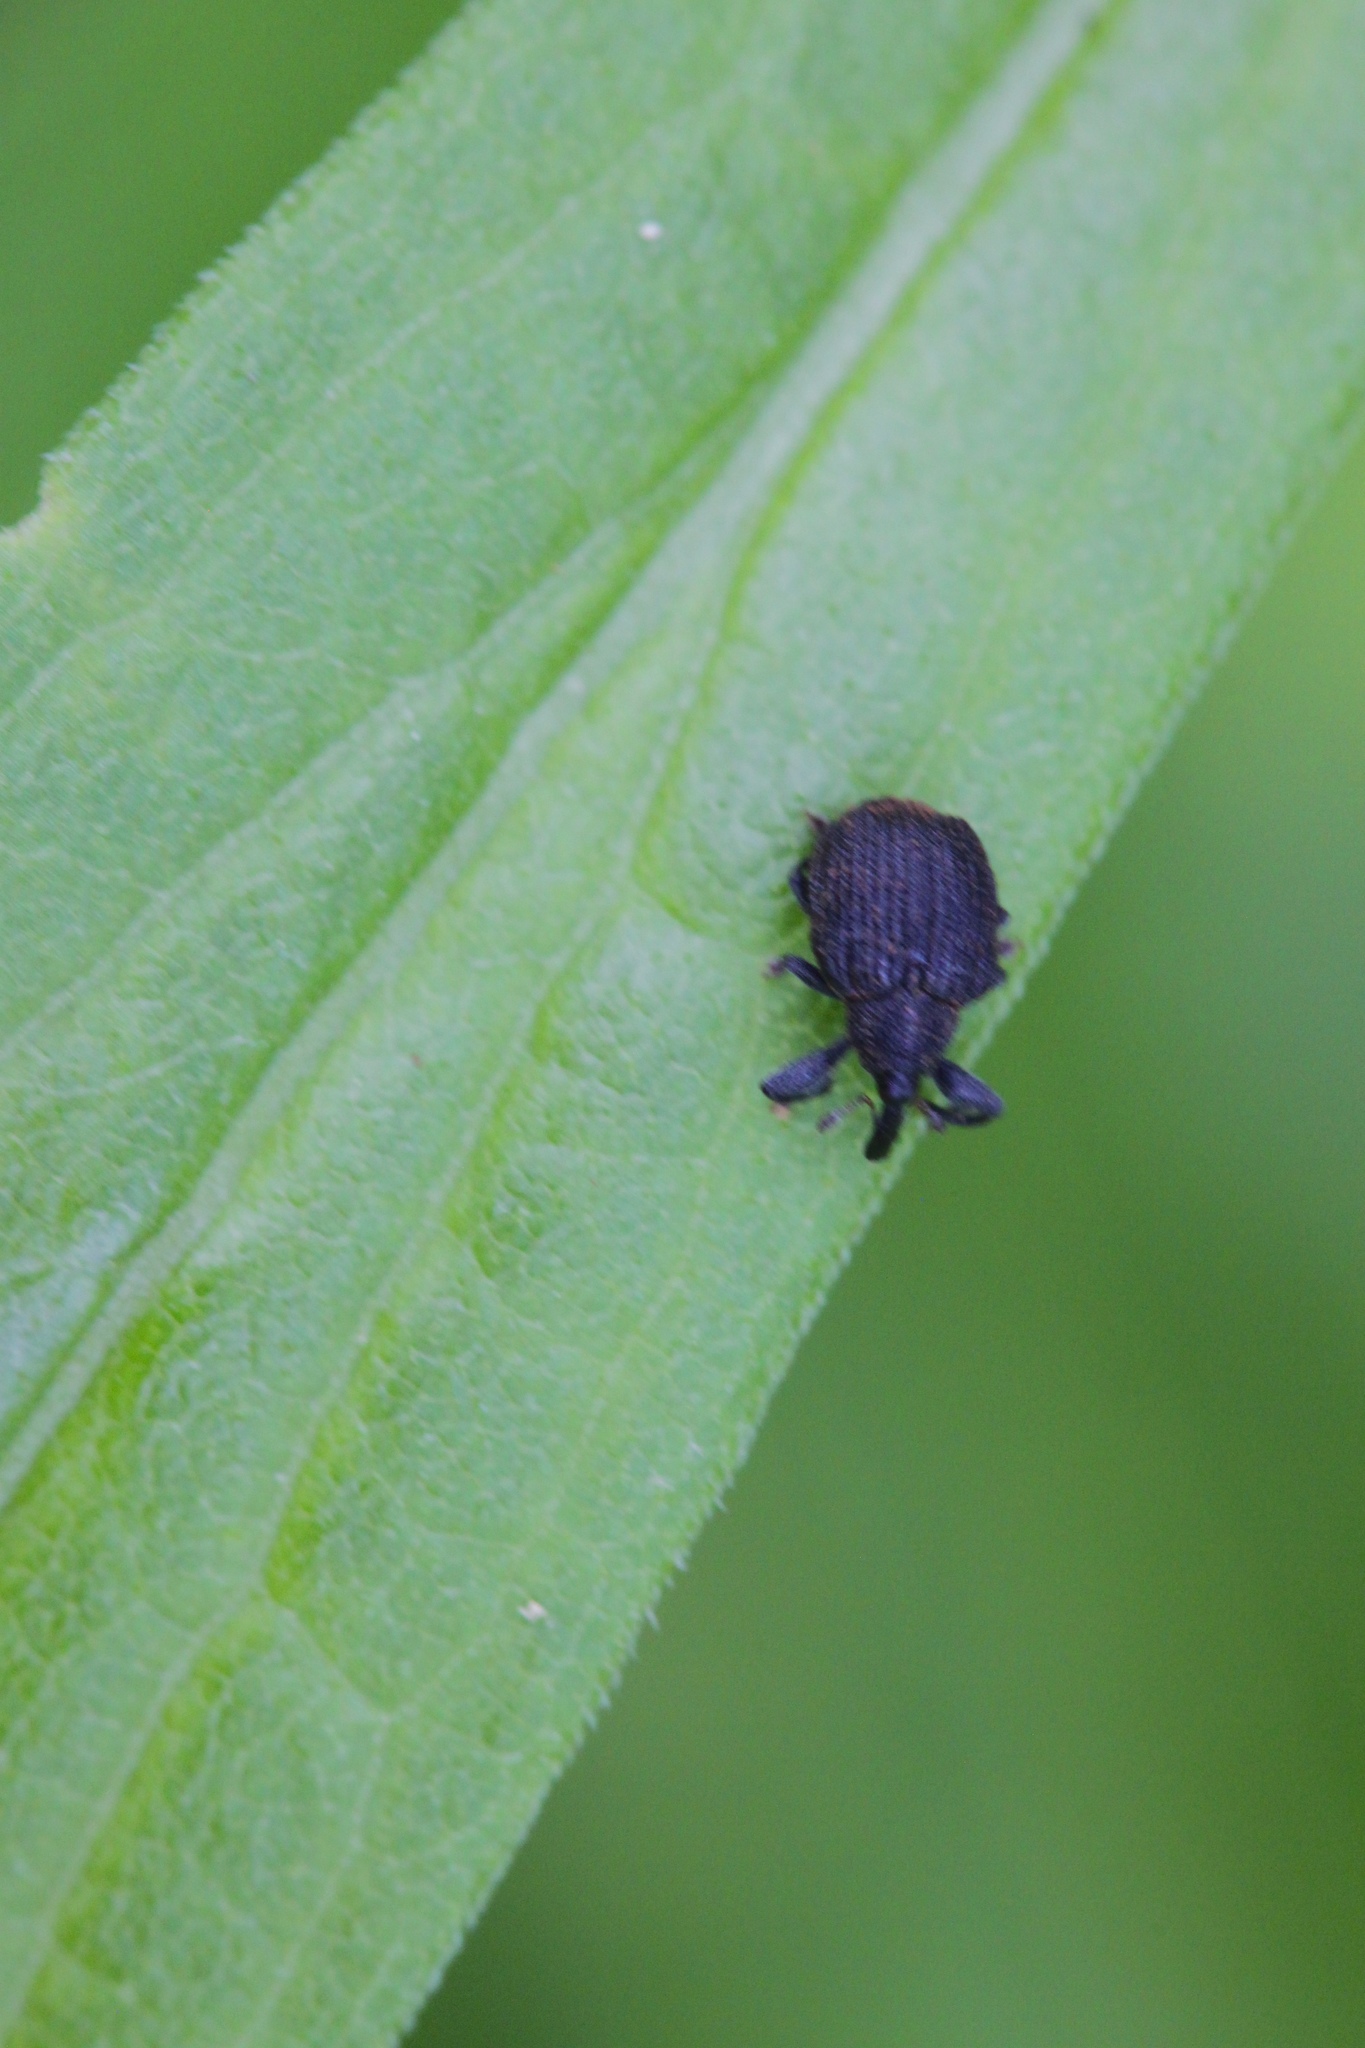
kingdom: Animalia
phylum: Arthropoda
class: Insecta
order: Coleoptera
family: Curculionidae
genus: Odontopus
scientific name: Odontopus calceatus
